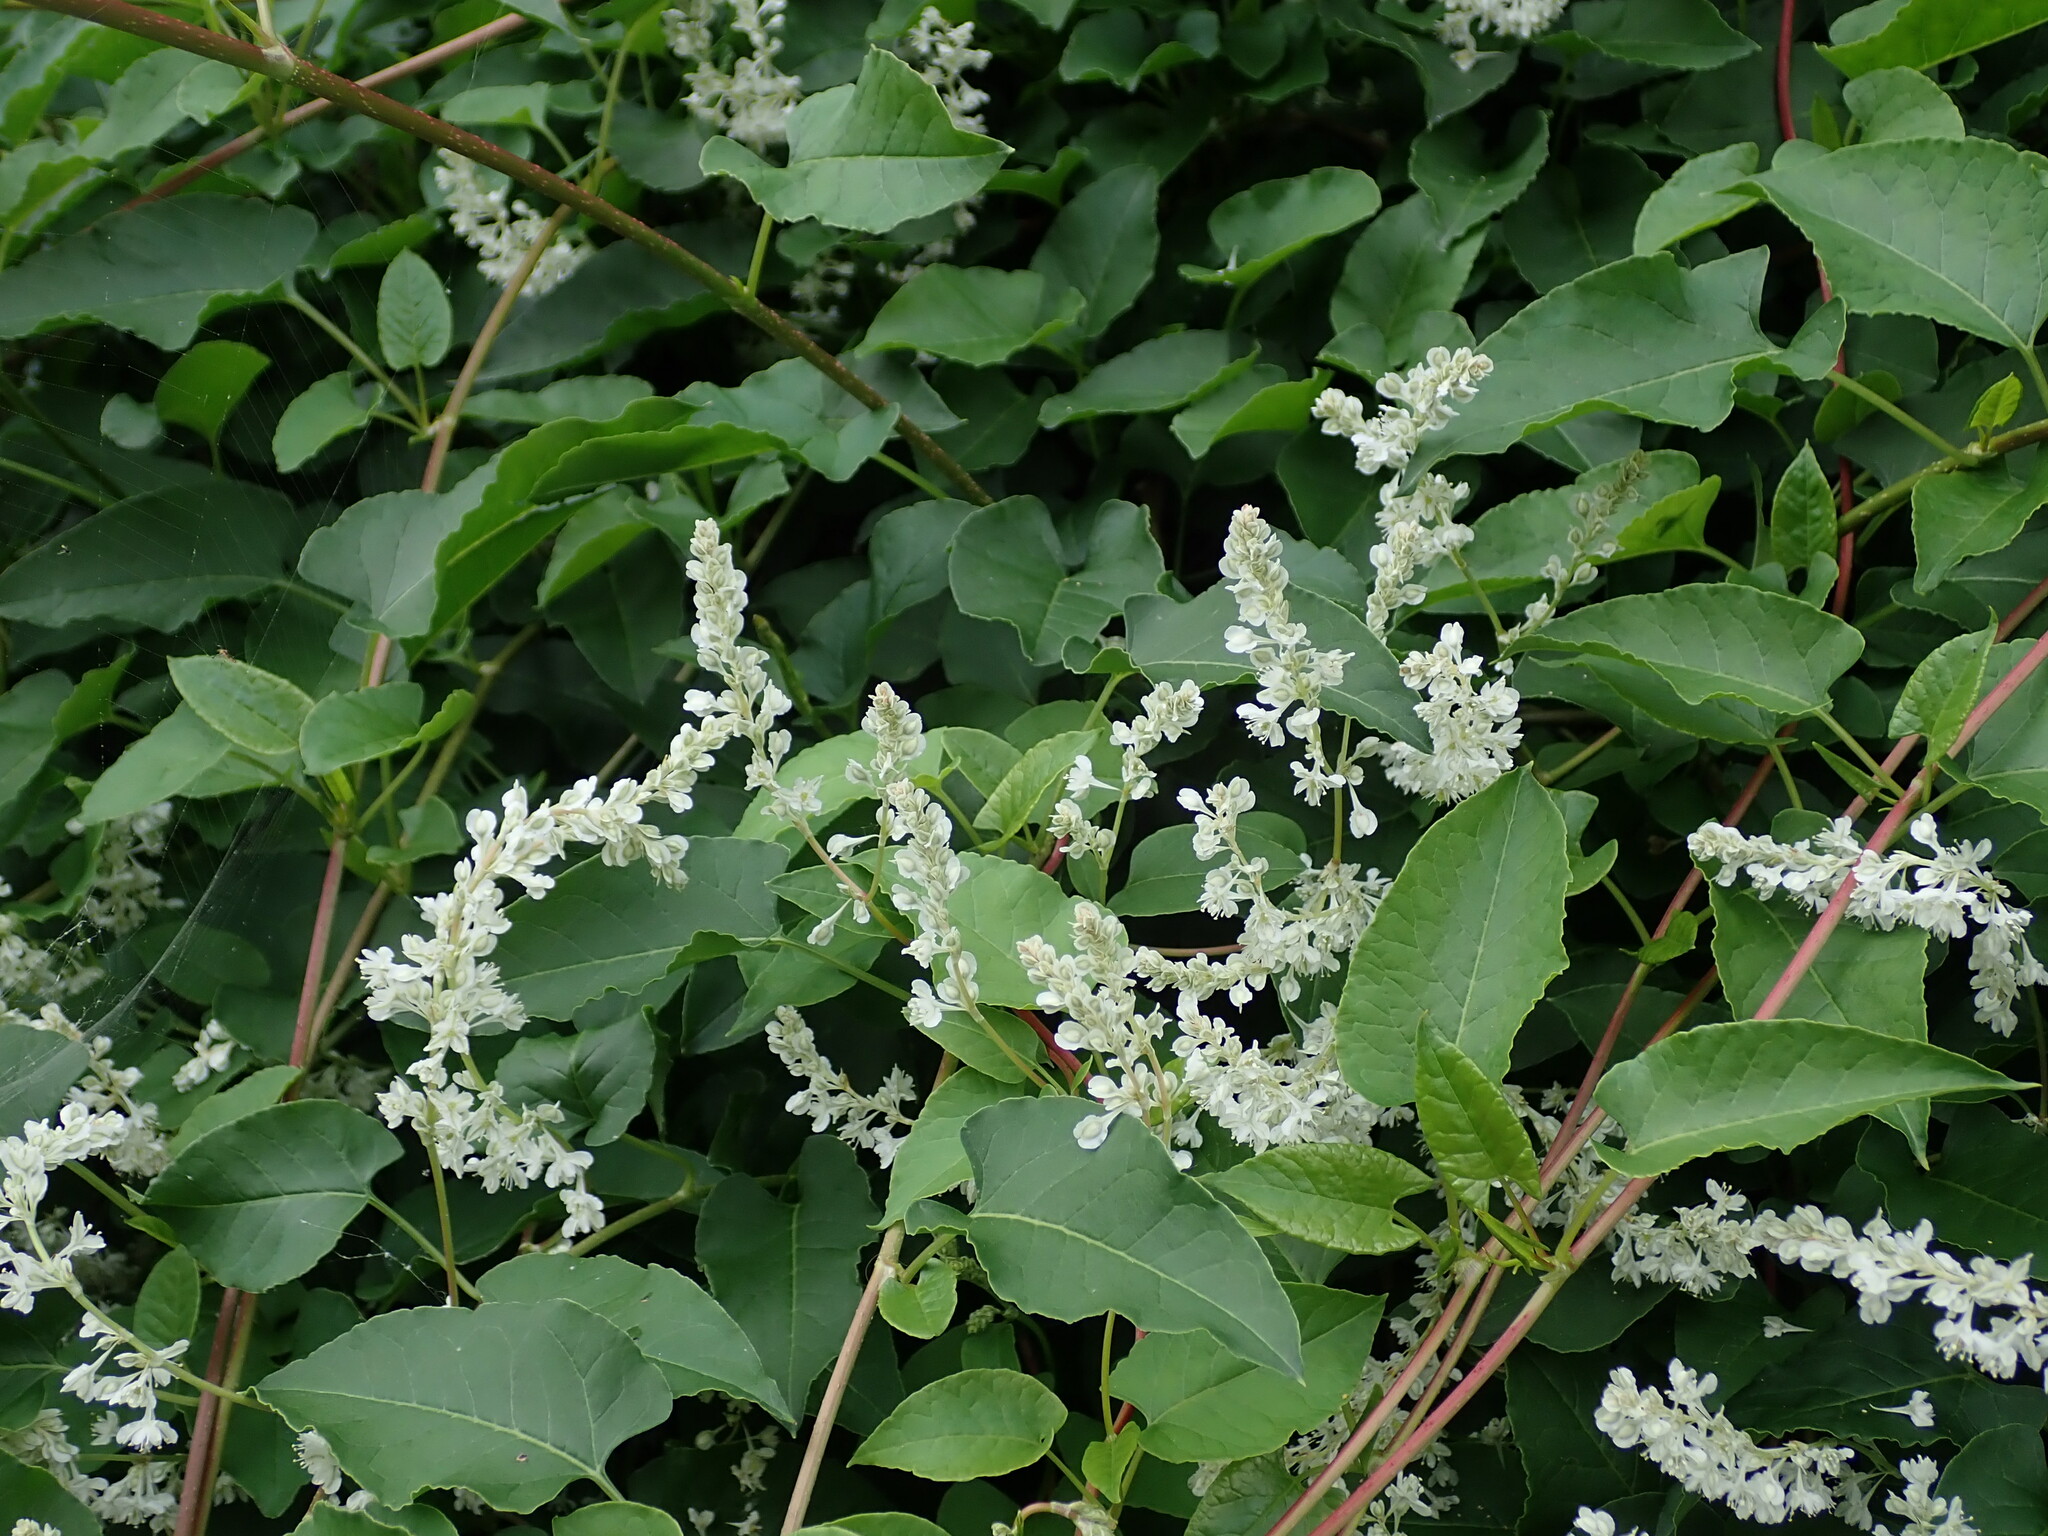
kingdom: Plantae
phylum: Tracheophyta
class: Magnoliopsida
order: Caryophyllales
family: Polygonaceae
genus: Fallopia
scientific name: Fallopia baldschuanica
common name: Russian-vine
